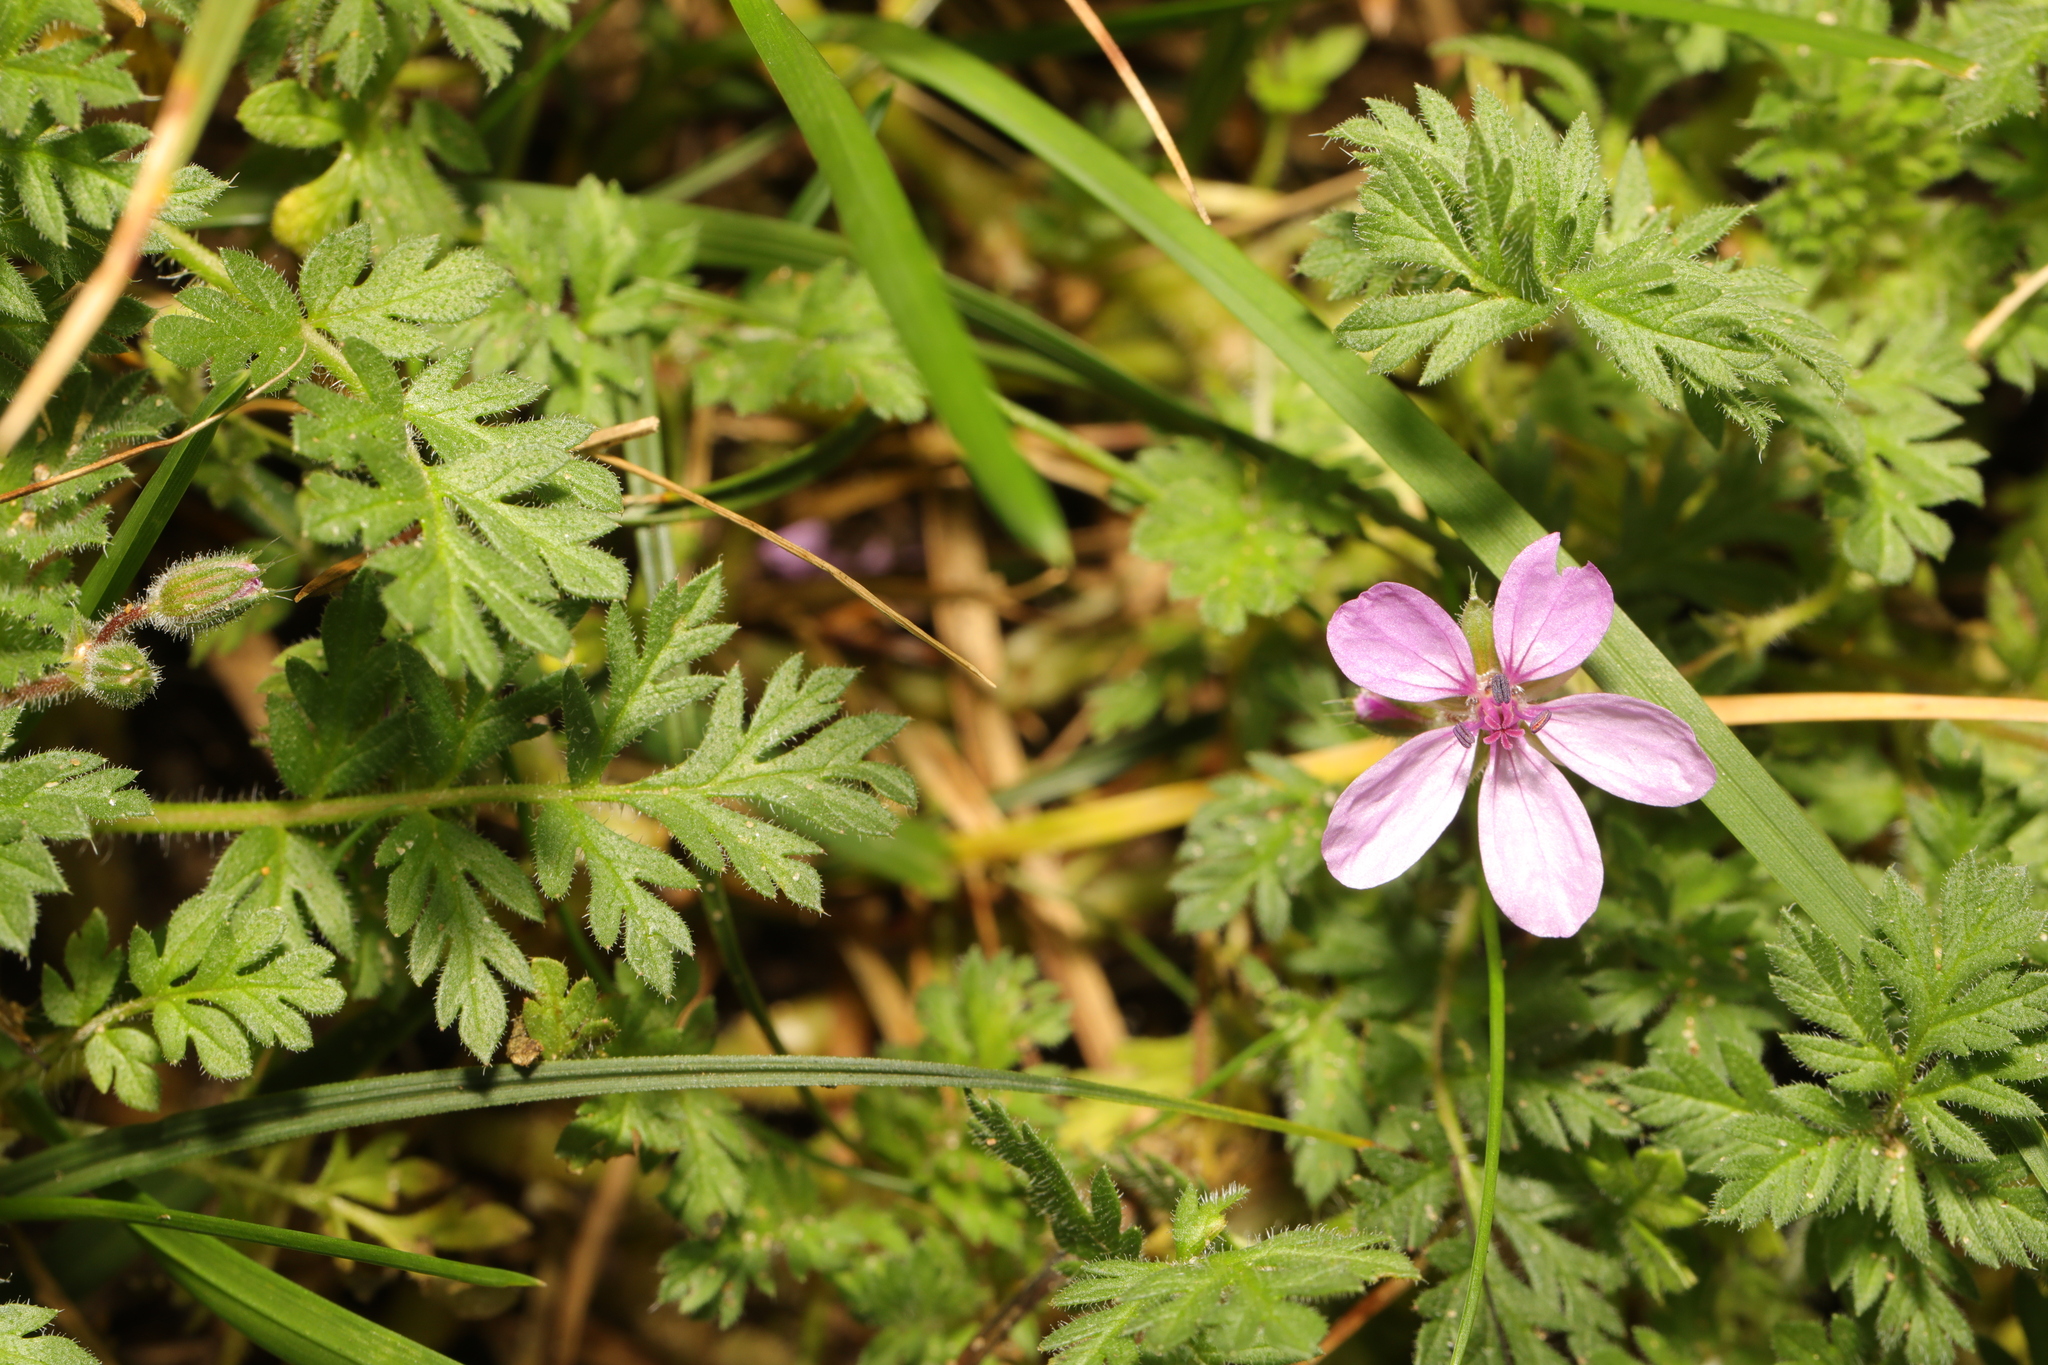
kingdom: Plantae
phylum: Tracheophyta
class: Magnoliopsida
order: Geraniales
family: Geraniaceae
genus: Erodium
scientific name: Erodium cicutarium
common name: Common stork's-bill
